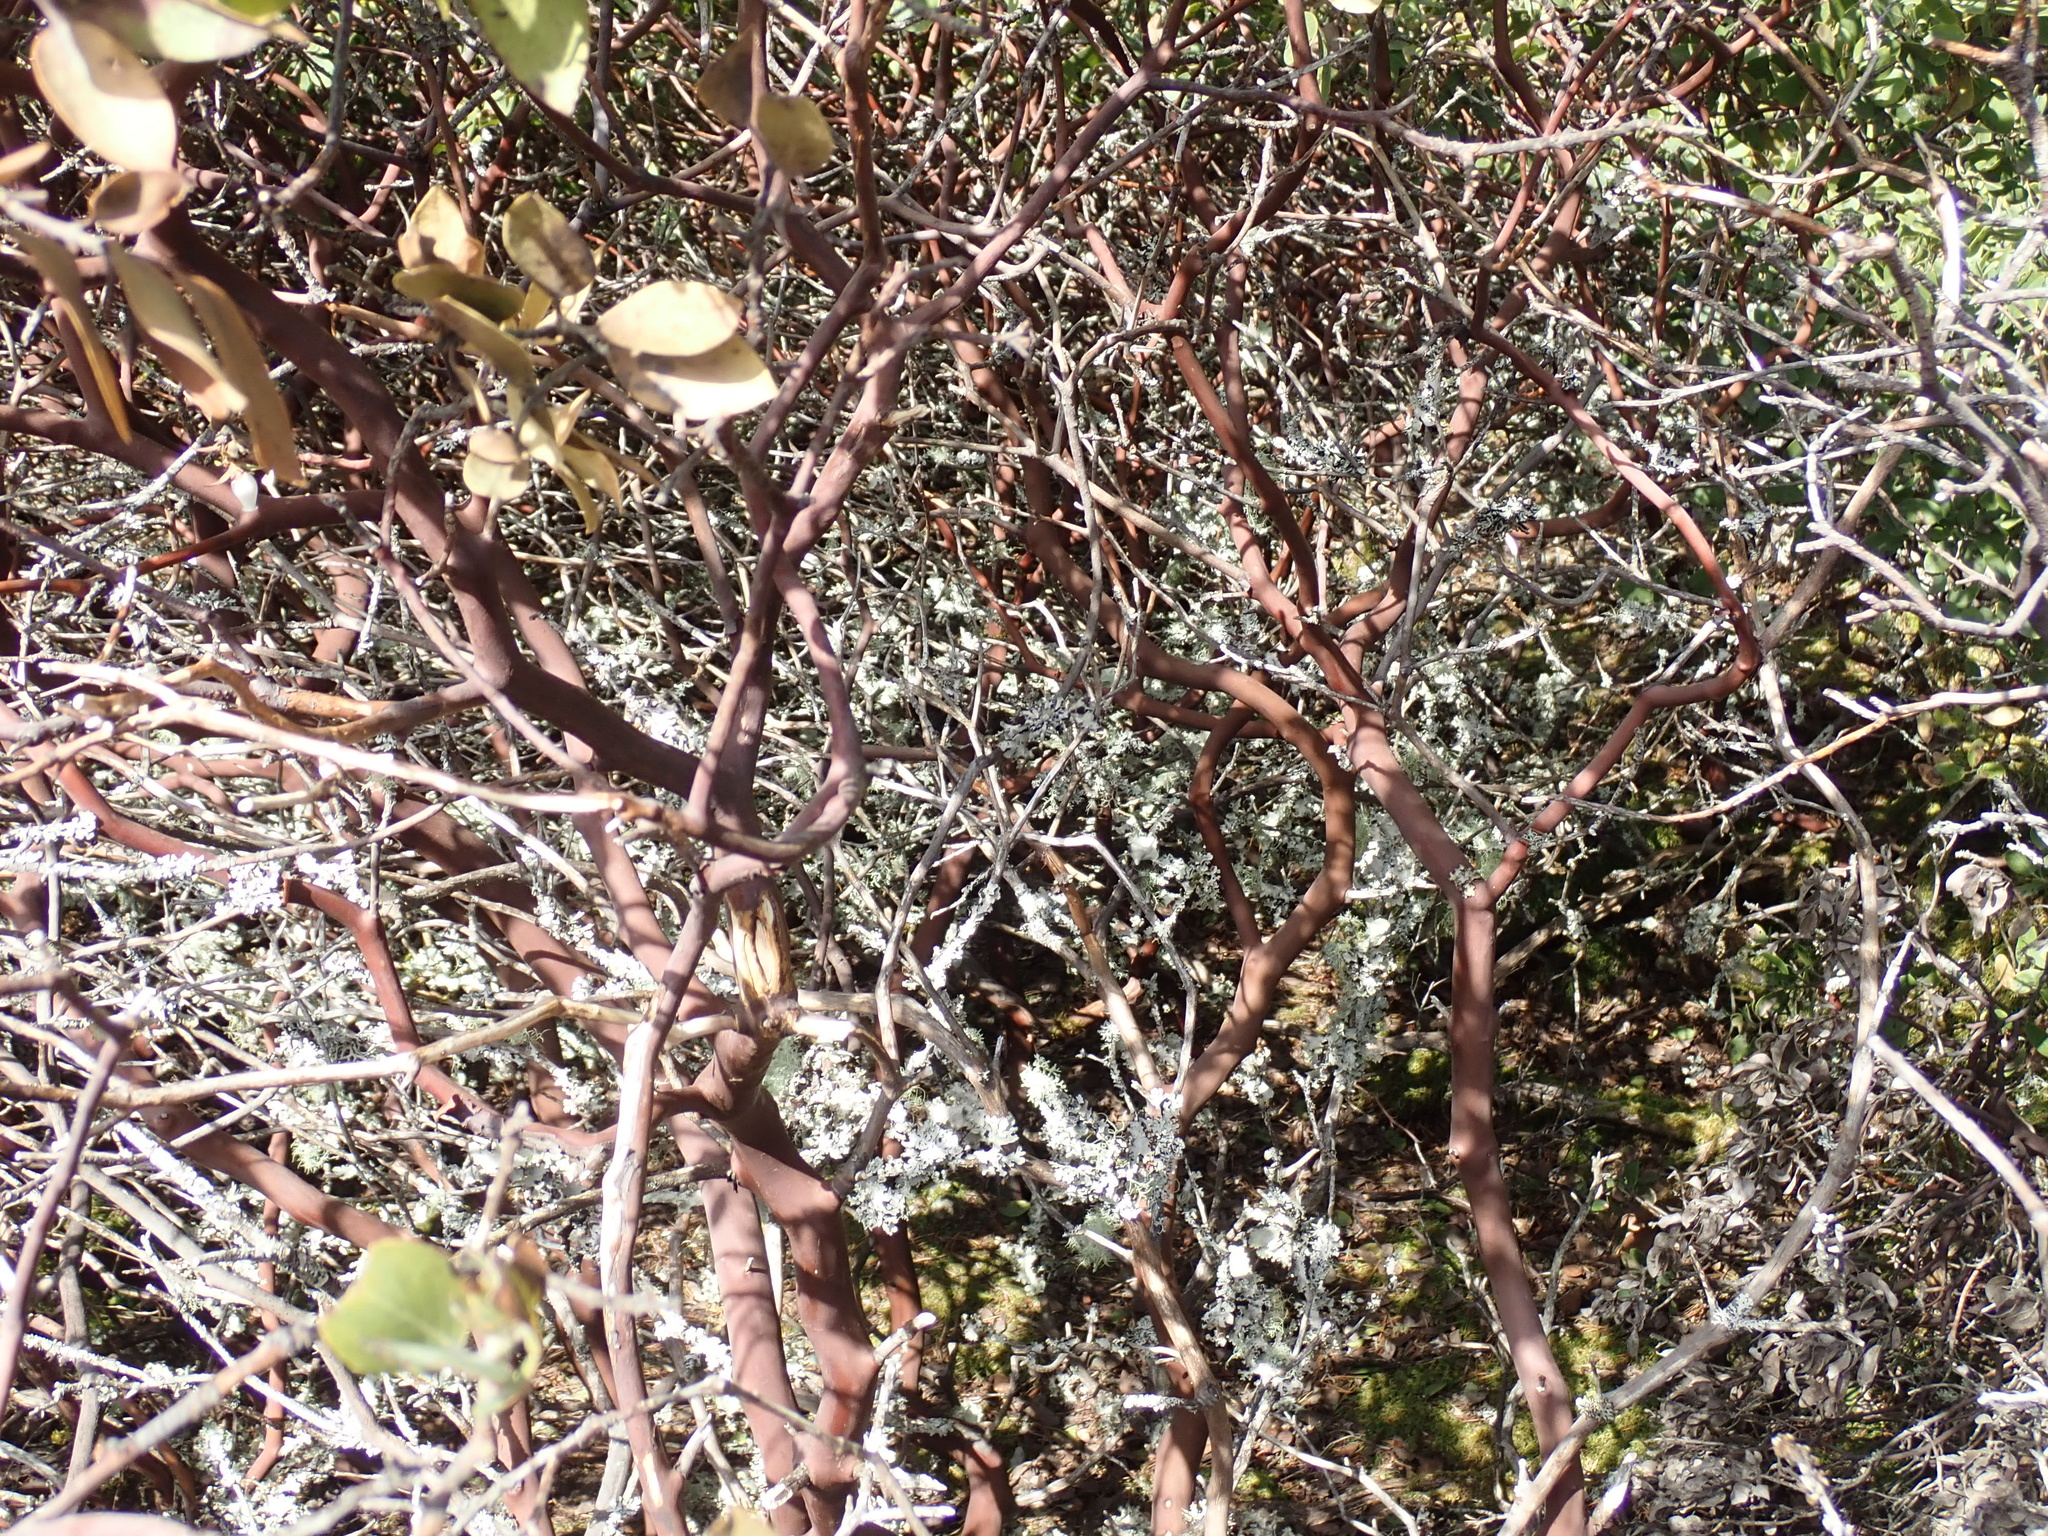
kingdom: Plantae
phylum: Tracheophyta
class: Magnoliopsida
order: Ericales
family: Ericaceae
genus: Arctostaphylos
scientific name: Arctostaphylos columbiana
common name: Bristly bearberry
